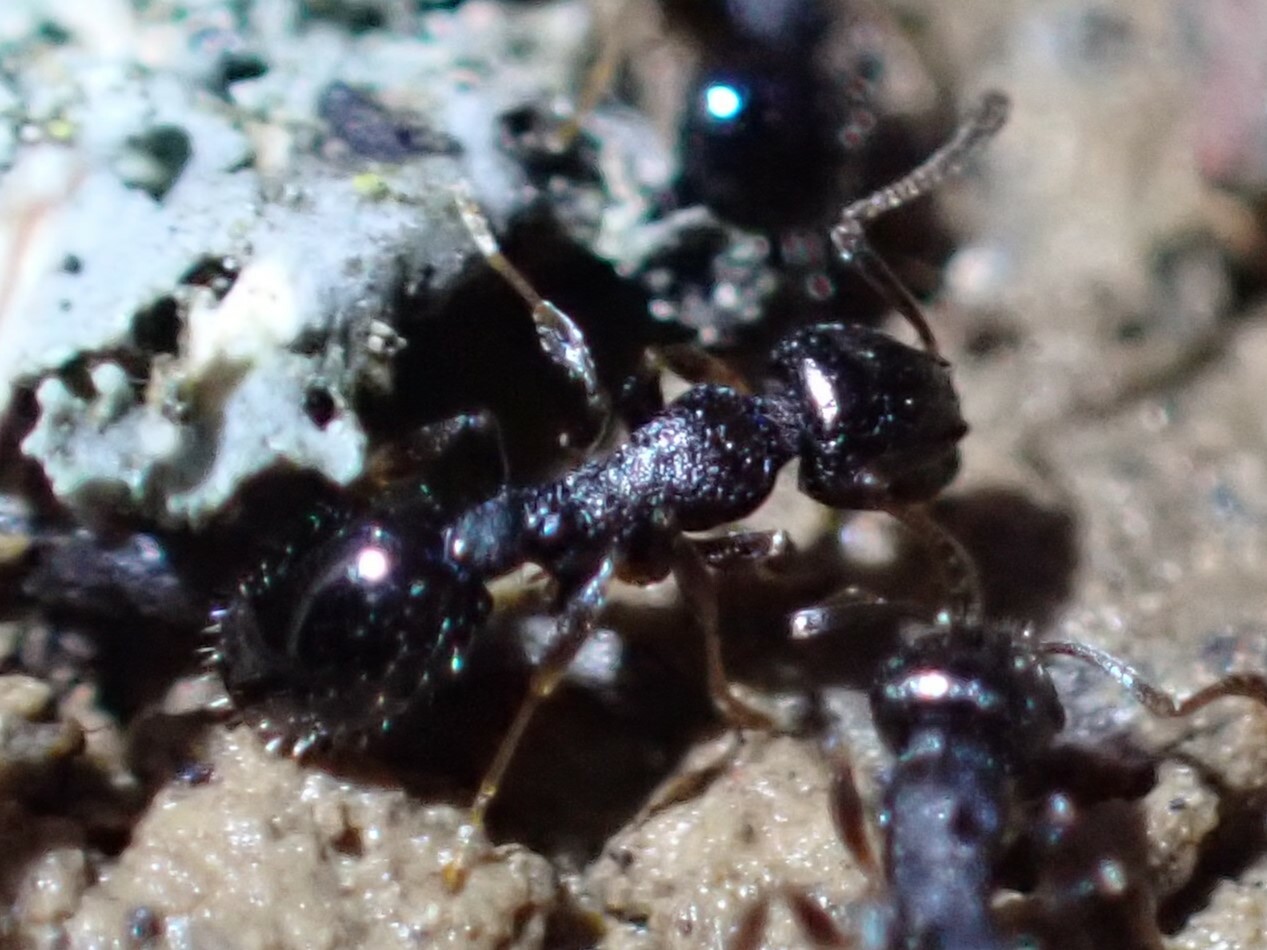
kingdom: Animalia
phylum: Arthropoda
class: Insecta
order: Hymenoptera
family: Formicidae
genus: Temnothorax
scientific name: Temnothorax longispinosus
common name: Long-spined acorn ant
